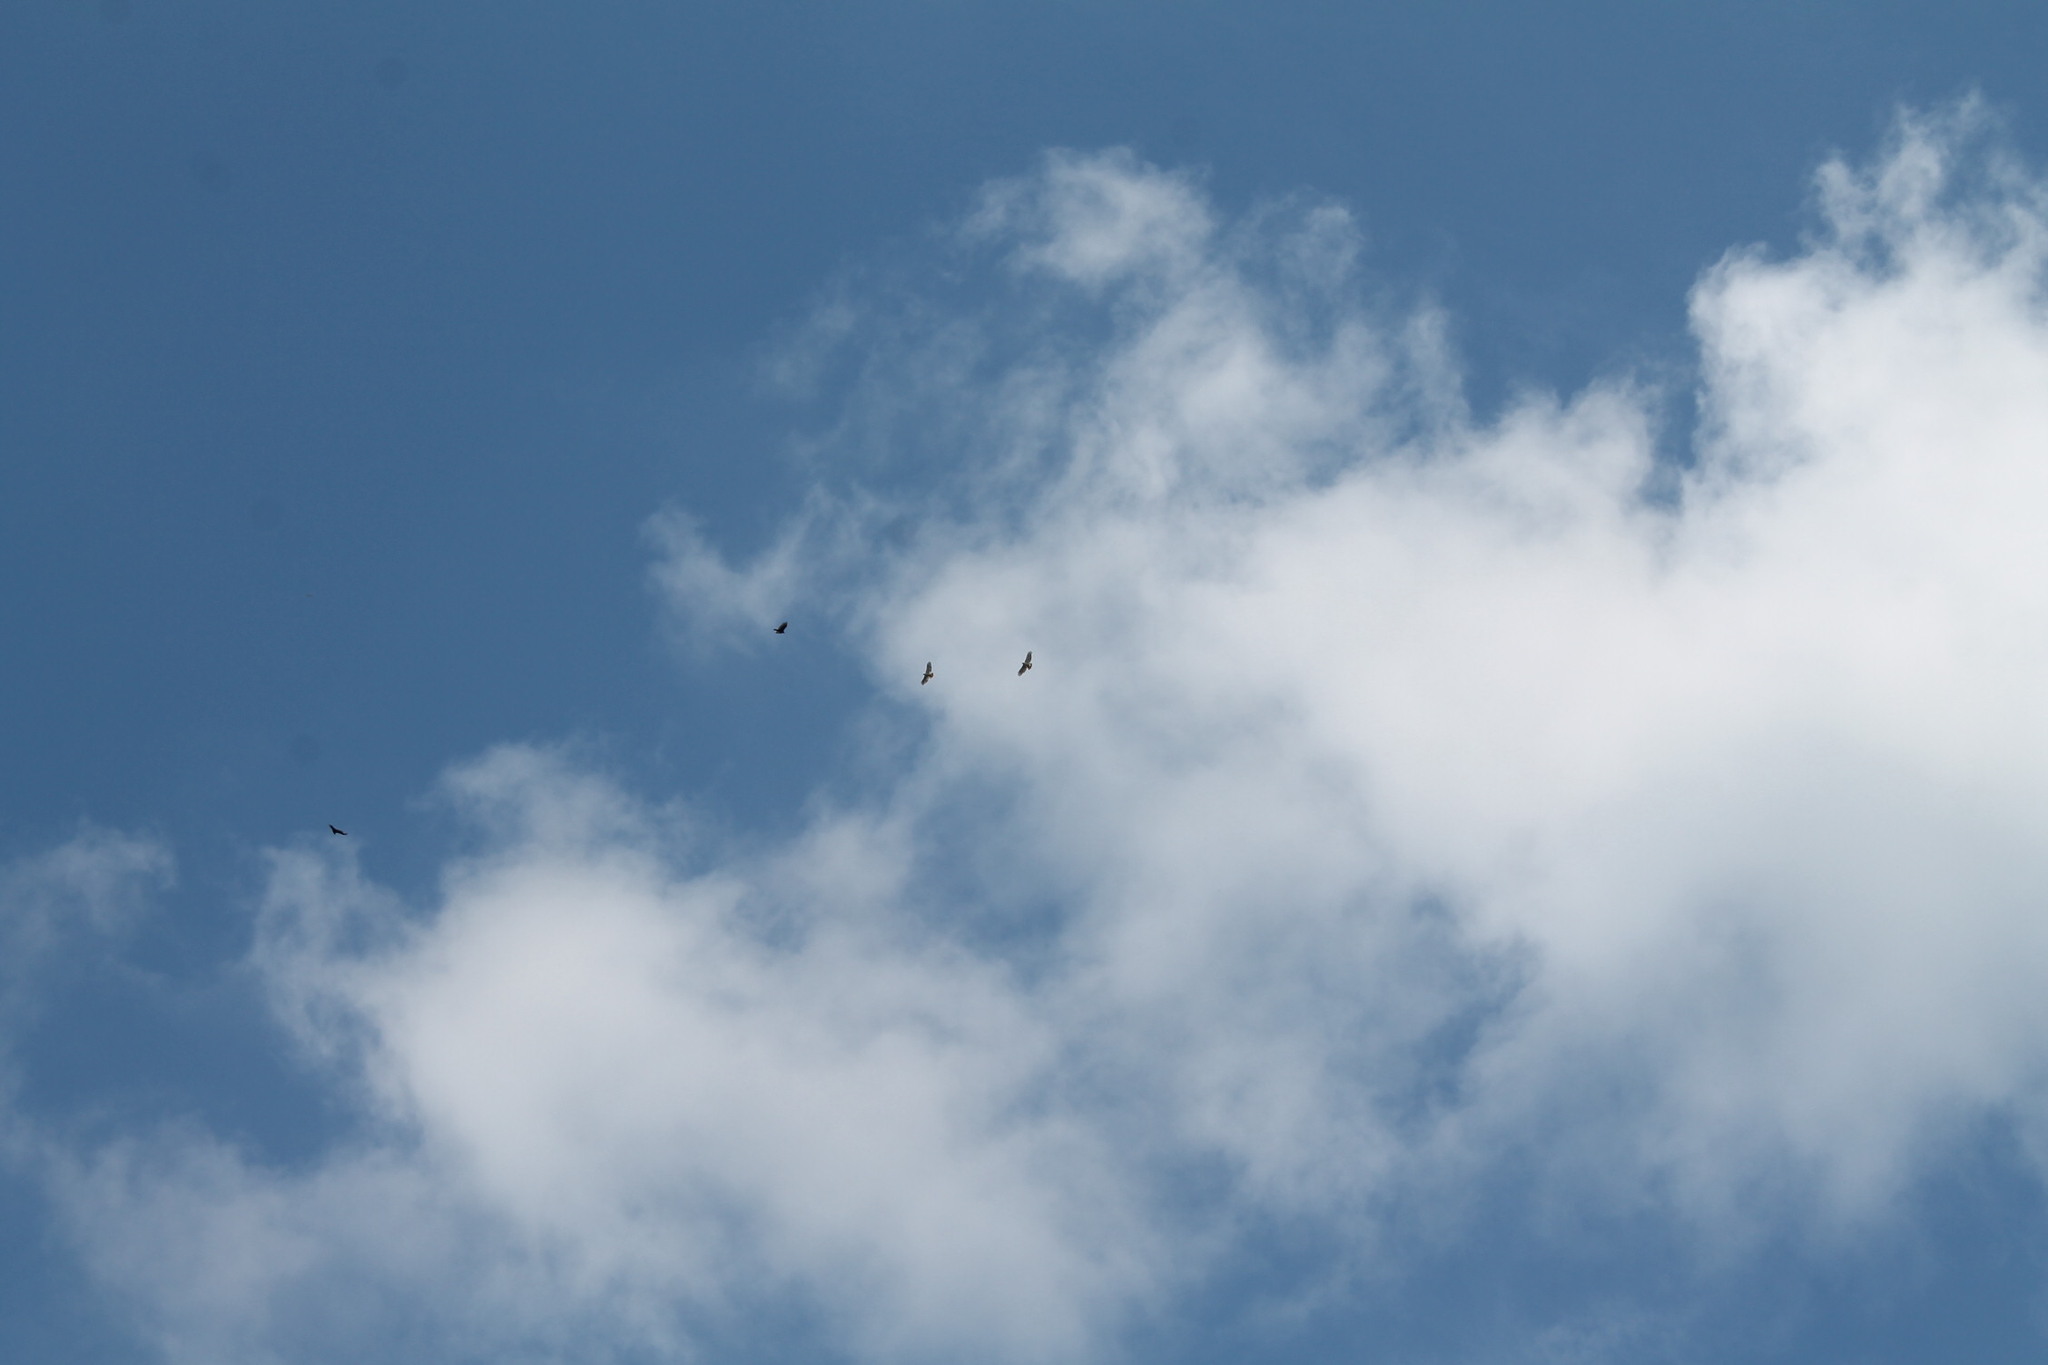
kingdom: Animalia
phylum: Chordata
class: Aves
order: Accipitriformes
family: Accipitridae
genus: Buteo
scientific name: Buteo jamaicensis
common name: Red-tailed hawk
